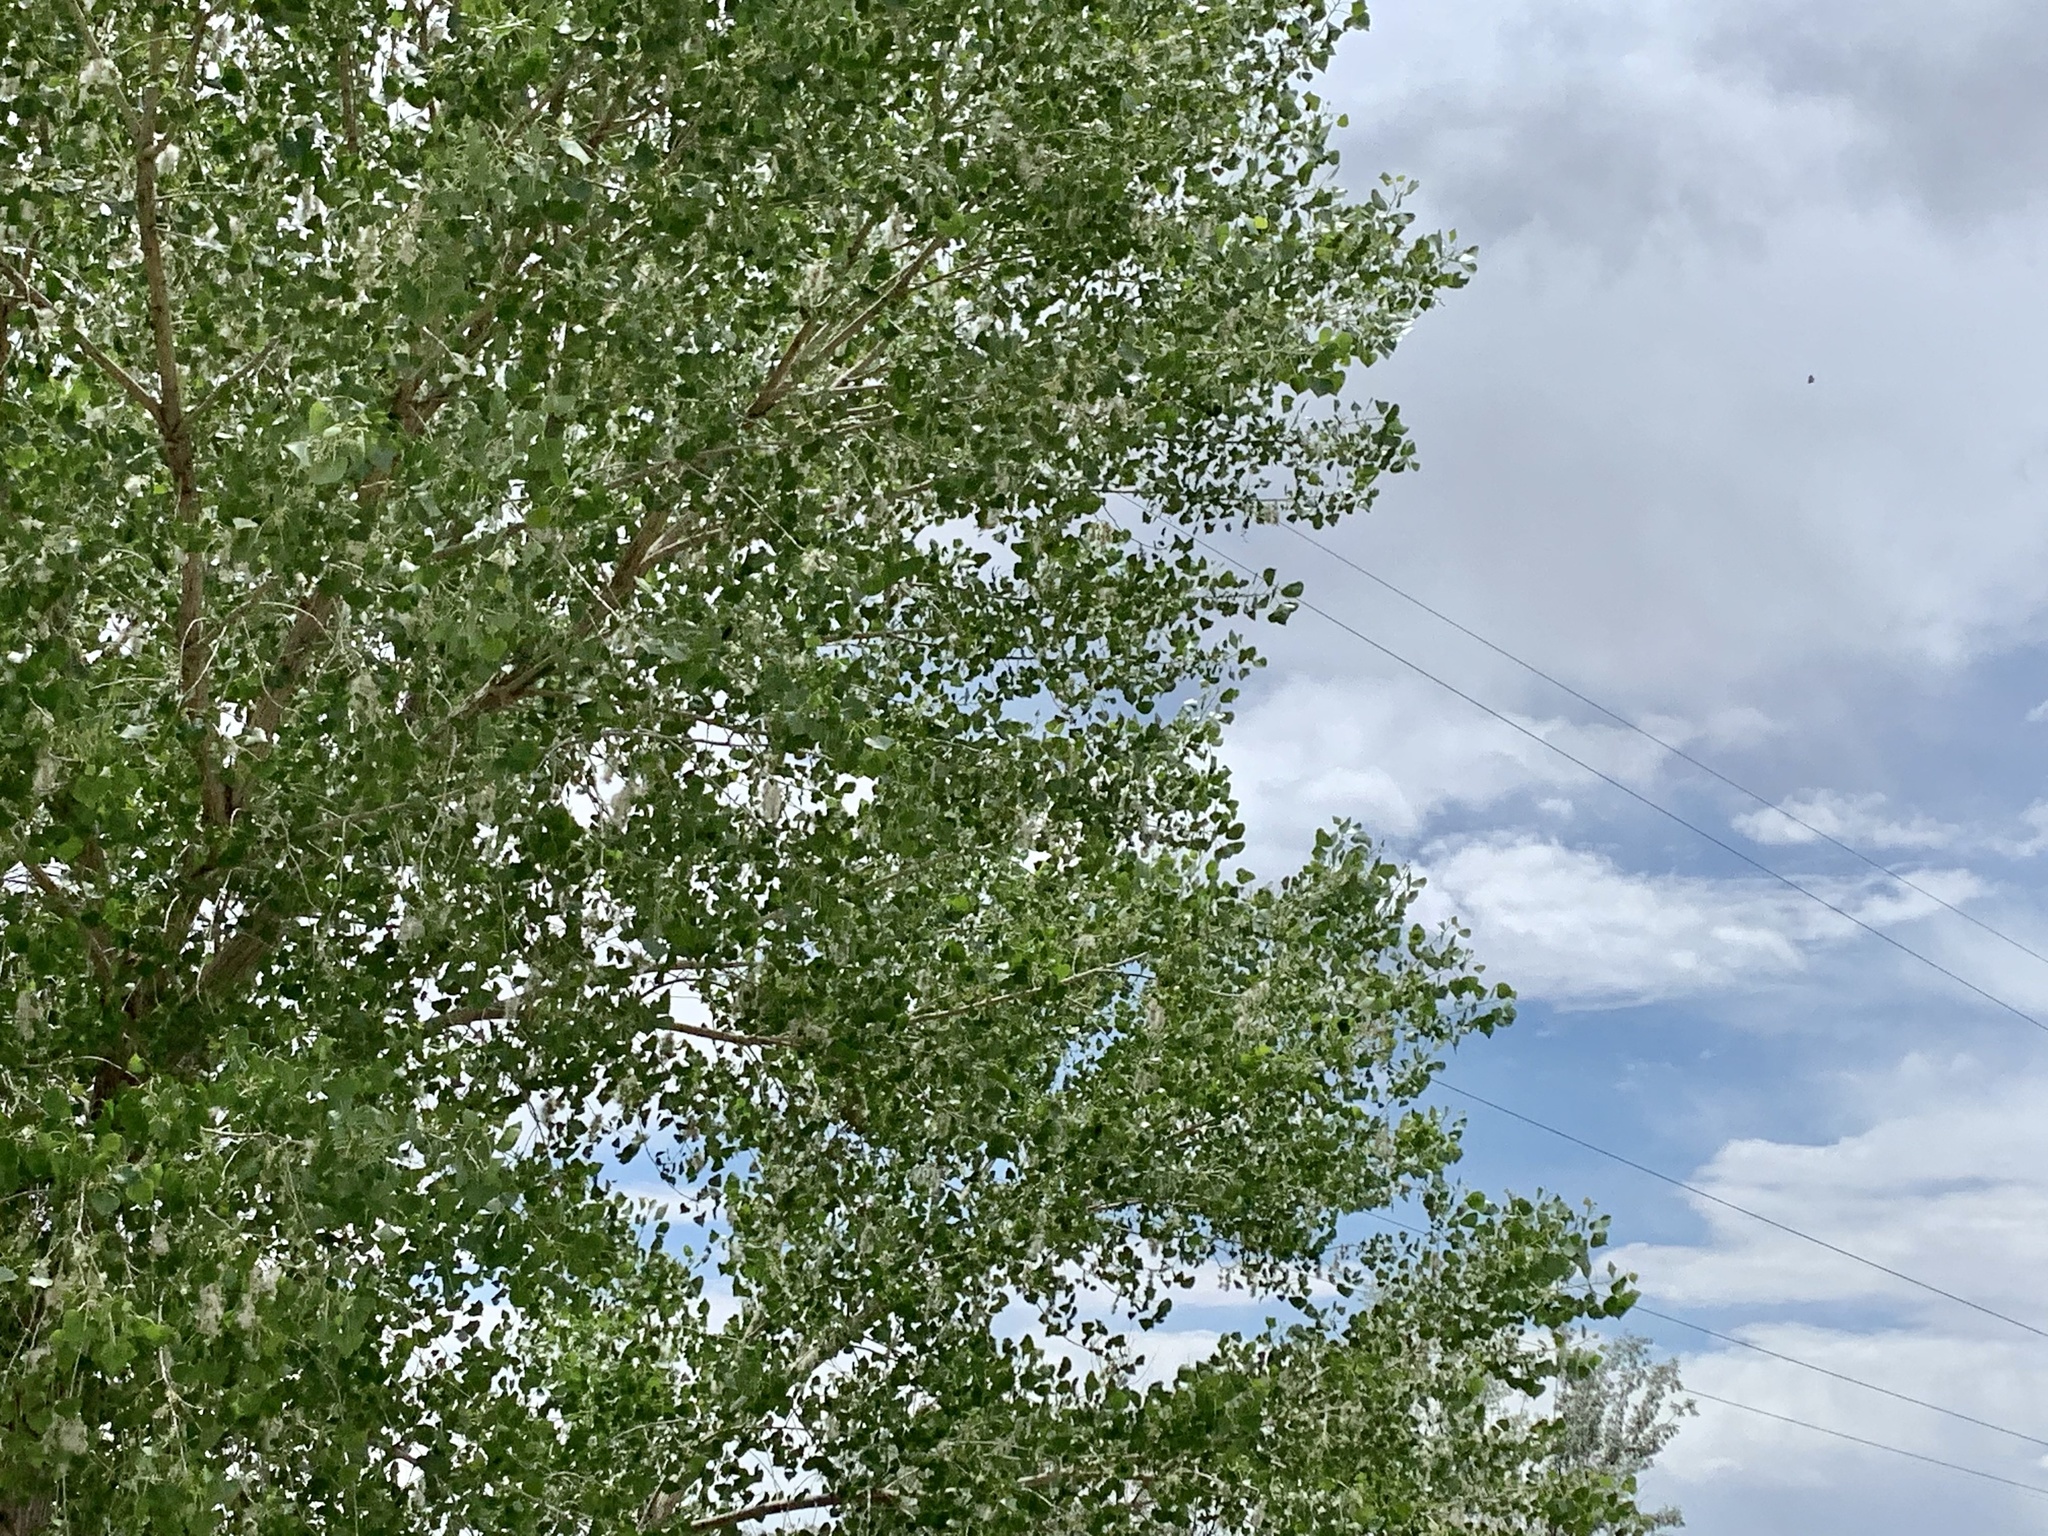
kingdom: Plantae
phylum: Tracheophyta
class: Magnoliopsida
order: Malpighiales
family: Salicaceae
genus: Populus
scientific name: Populus fremontii
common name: Fremont's cottonwood
